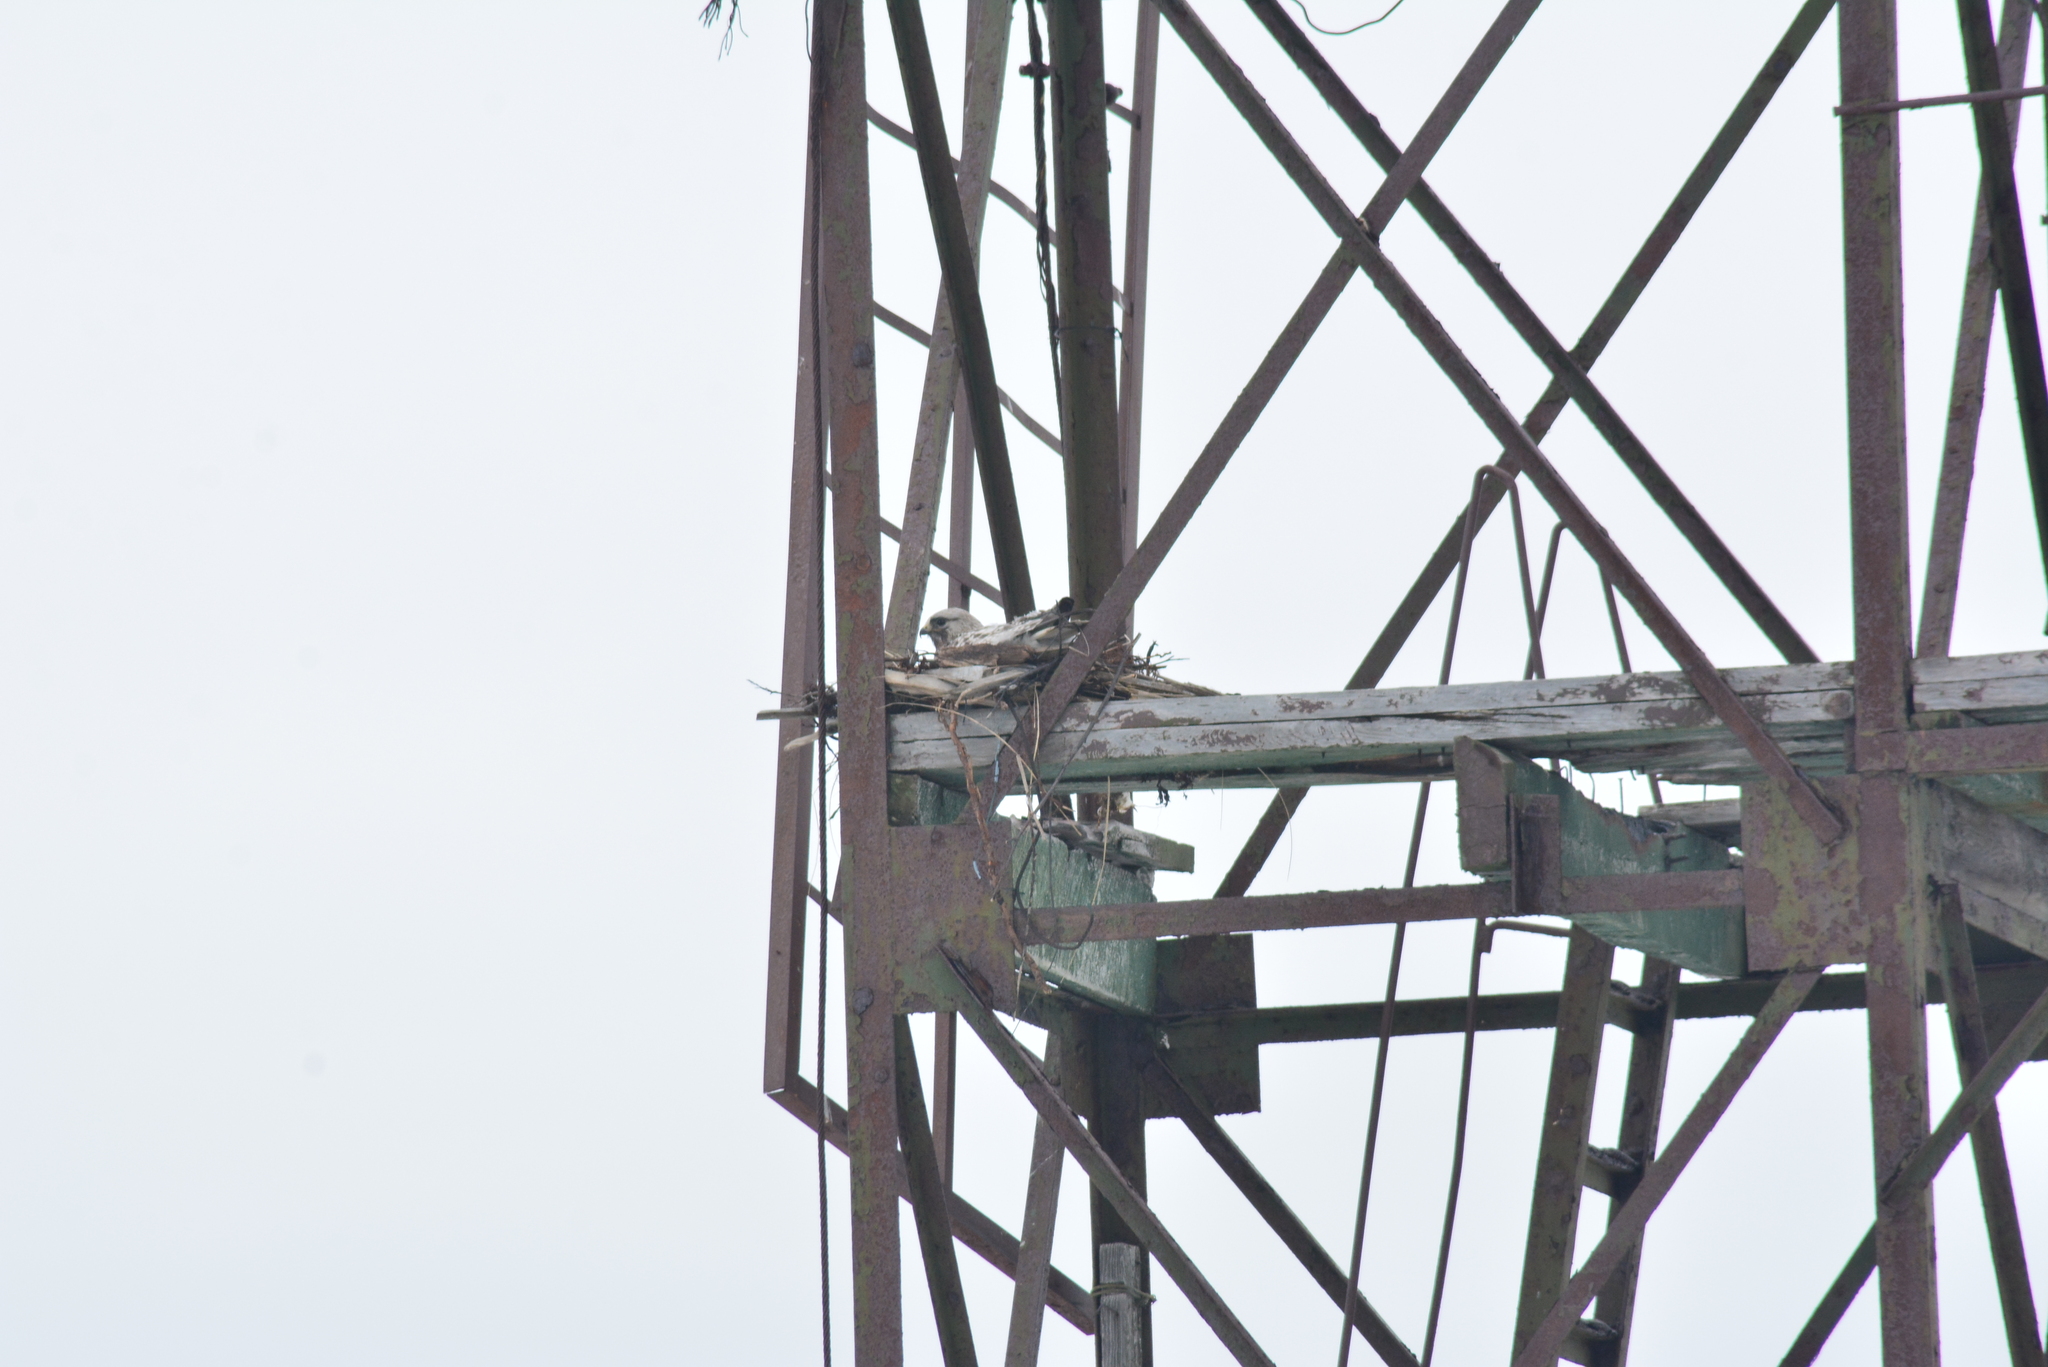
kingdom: Animalia
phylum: Chordata
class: Aves
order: Accipitriformes
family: Accipitridae
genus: Buteo
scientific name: Buteo lagopus
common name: Rough-legged buzzard
